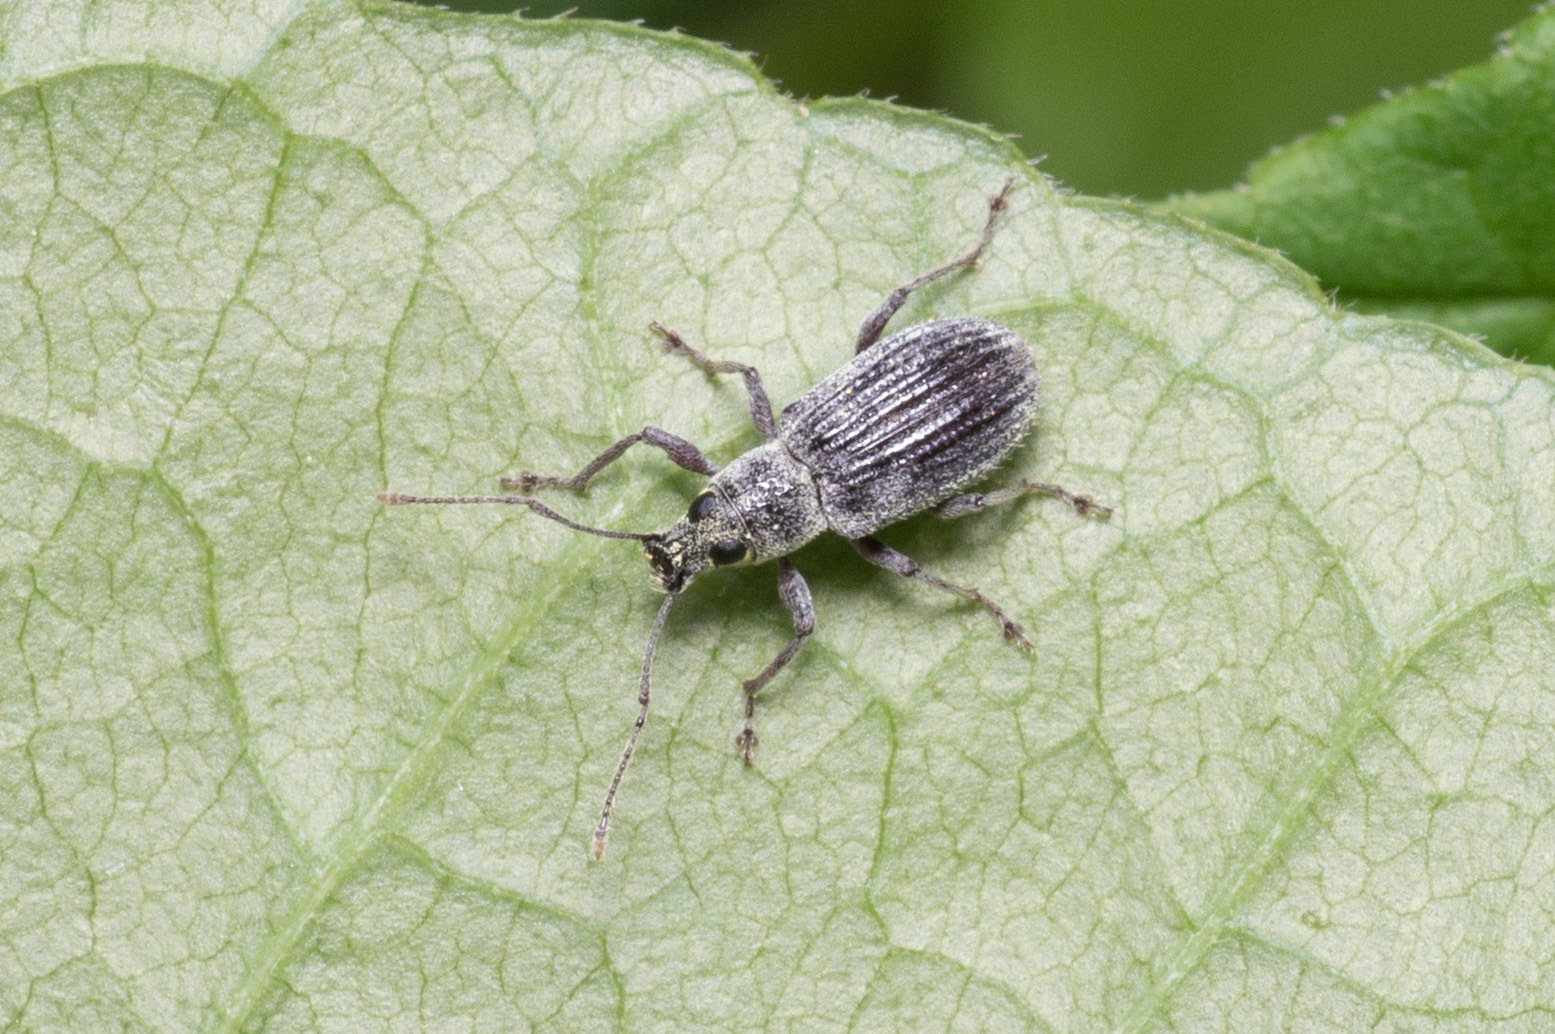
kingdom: Animalia
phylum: Arthropoda
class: Insecta
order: Coleoptera
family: Curculionidae
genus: Cyrtepistomus
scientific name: Cyrtepistomus castaneus
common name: Weevil
